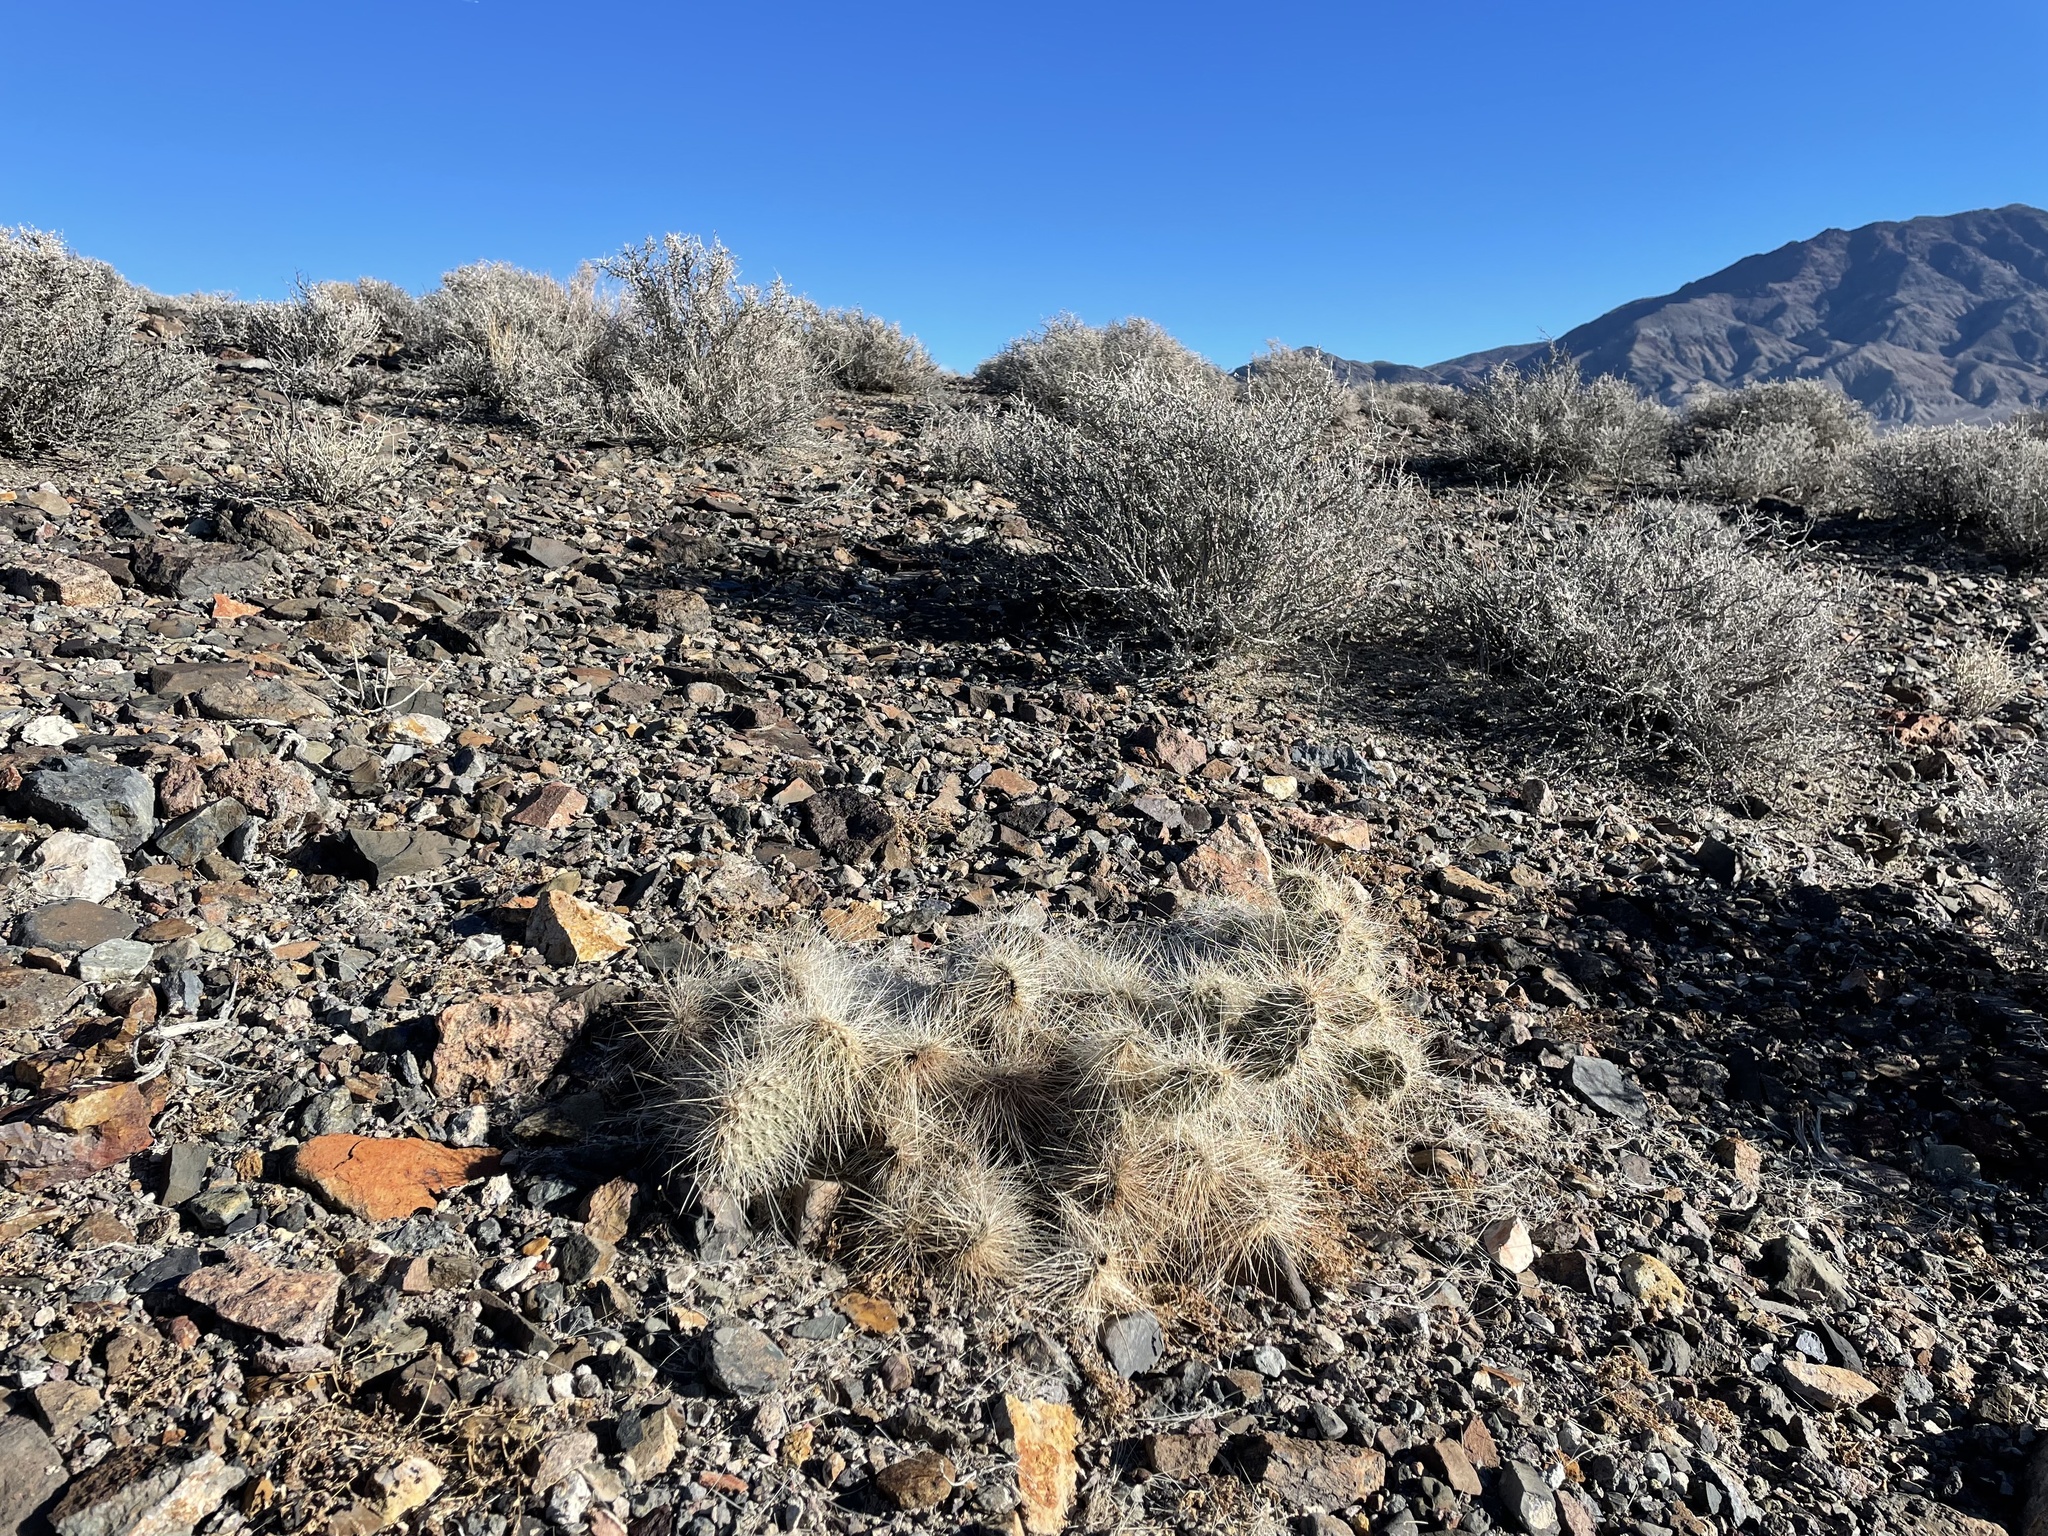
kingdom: Plantae
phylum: Tracheophyta
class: Magnoliopsida
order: Caryophyllales
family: Cactaceae
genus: Opuntia
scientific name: Opuntia polyacantha
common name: Plains prickly-pear
